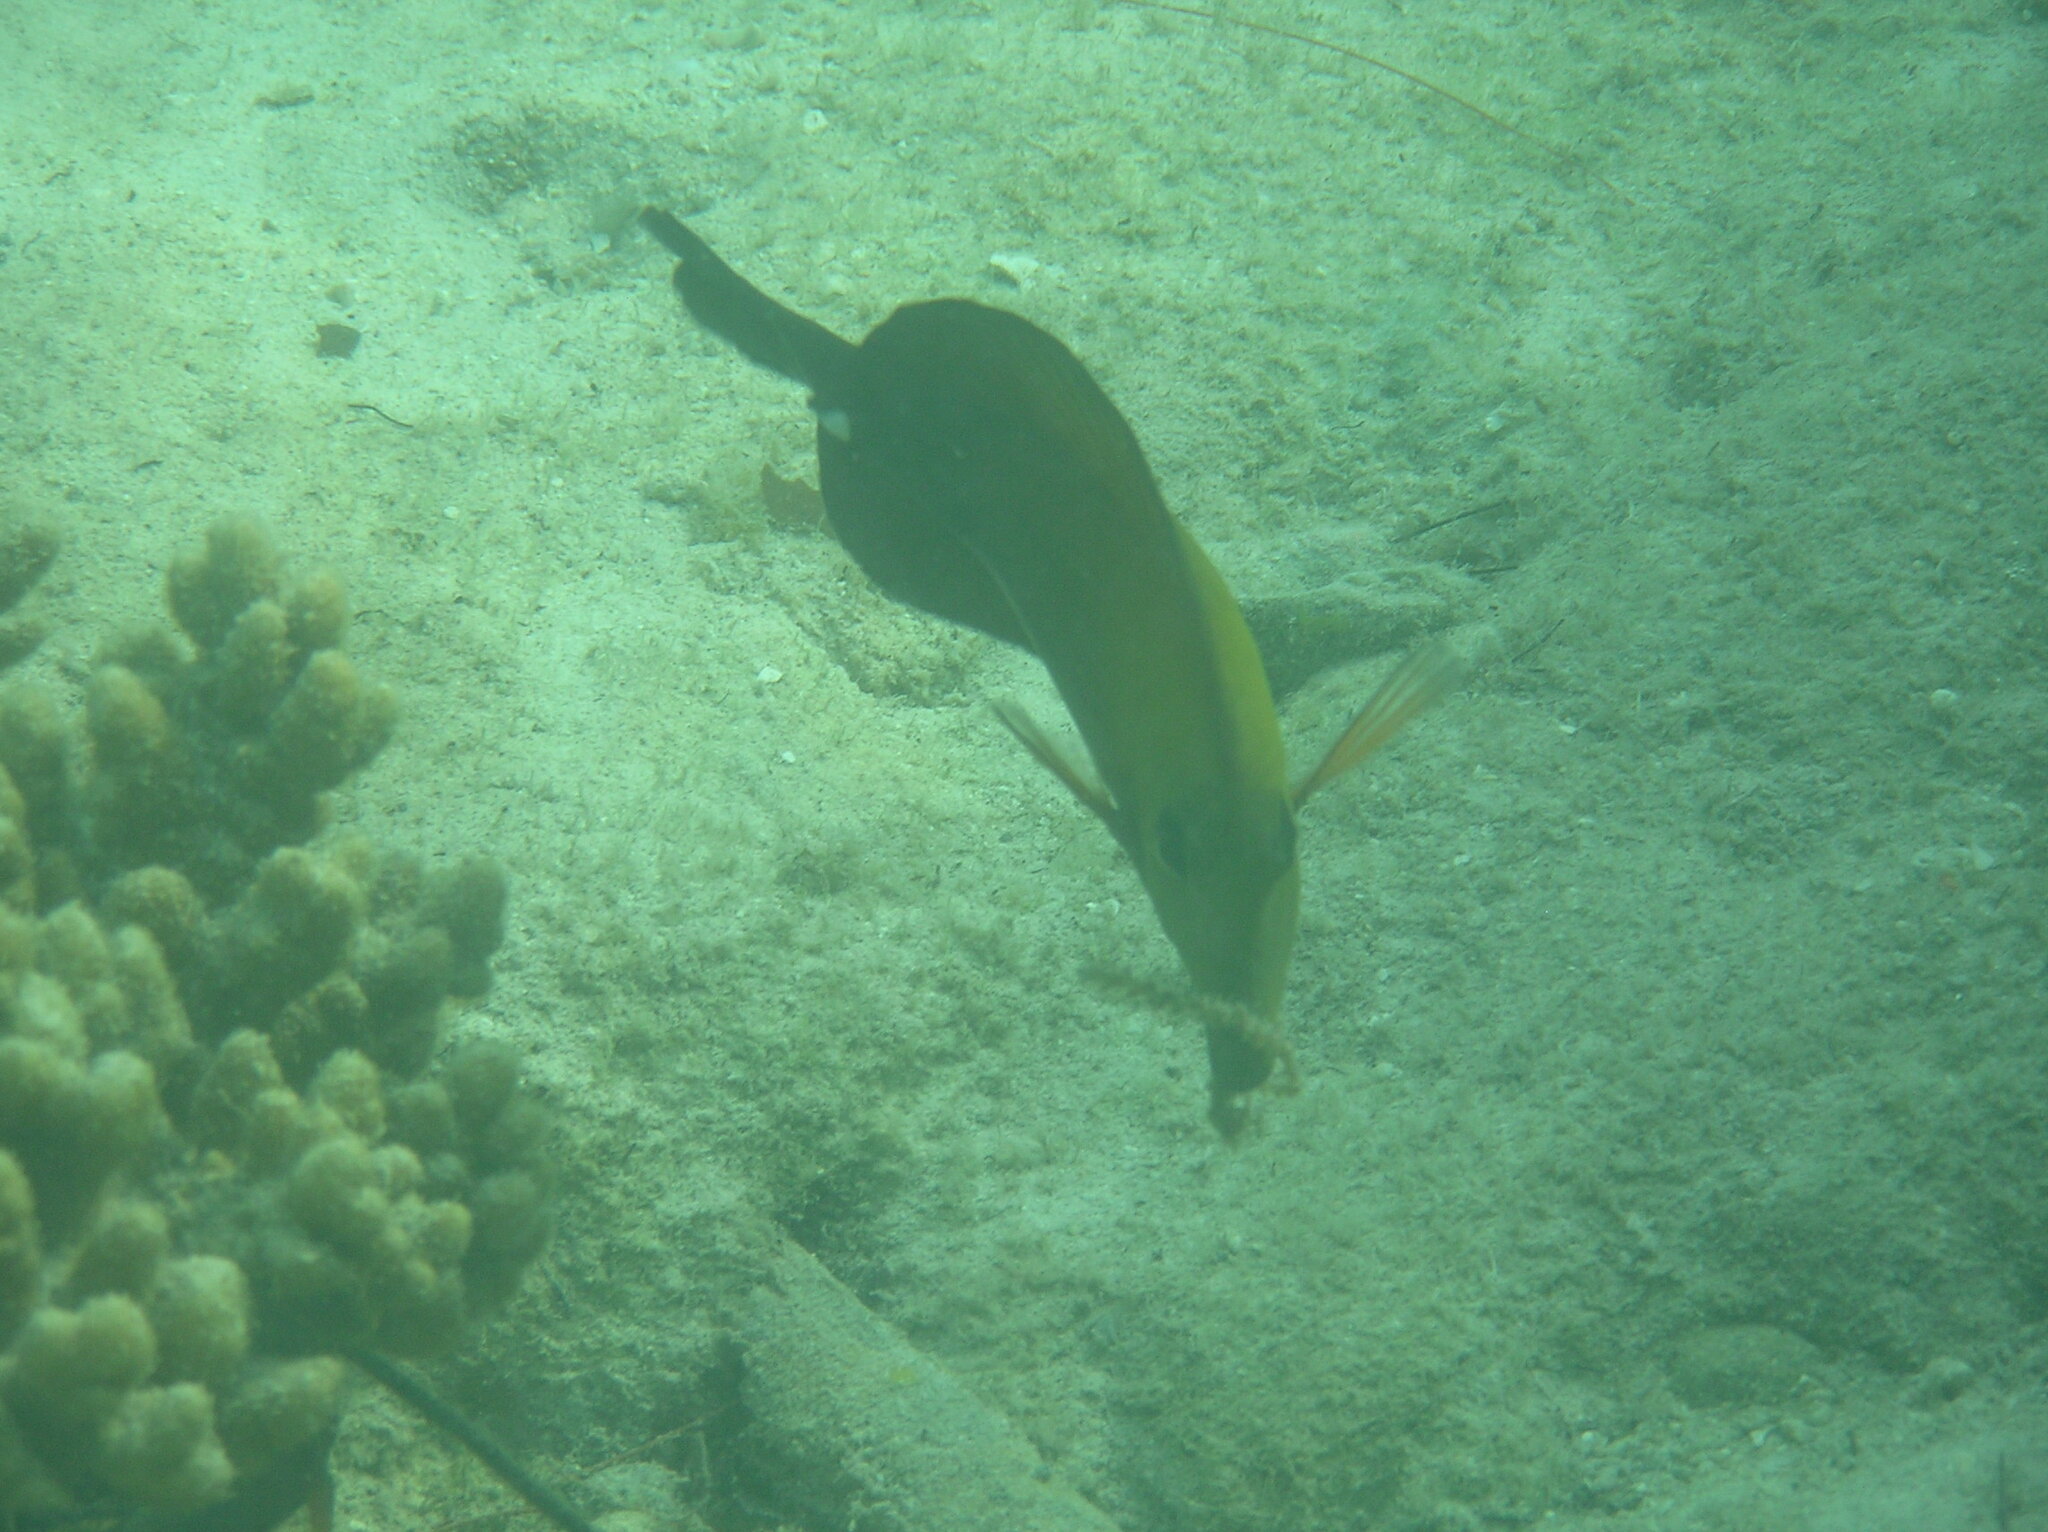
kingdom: Animalia
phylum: Chordata
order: Perciformes
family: Acanthuridae
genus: Zebrasoma
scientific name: Zebrasoma scopas
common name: Twotone tang
